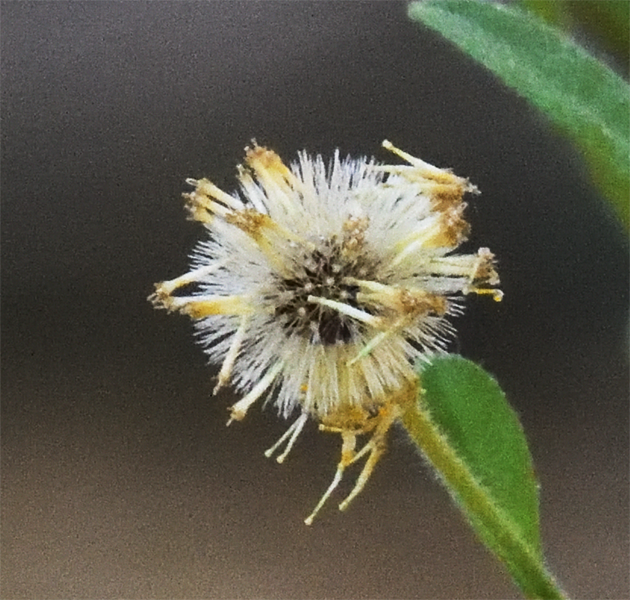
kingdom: Plantae
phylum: Tracheophyta
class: Magnoliopsida
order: Asterales
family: Asteraceae
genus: Pulicaria
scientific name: Pulicaria paludosa
